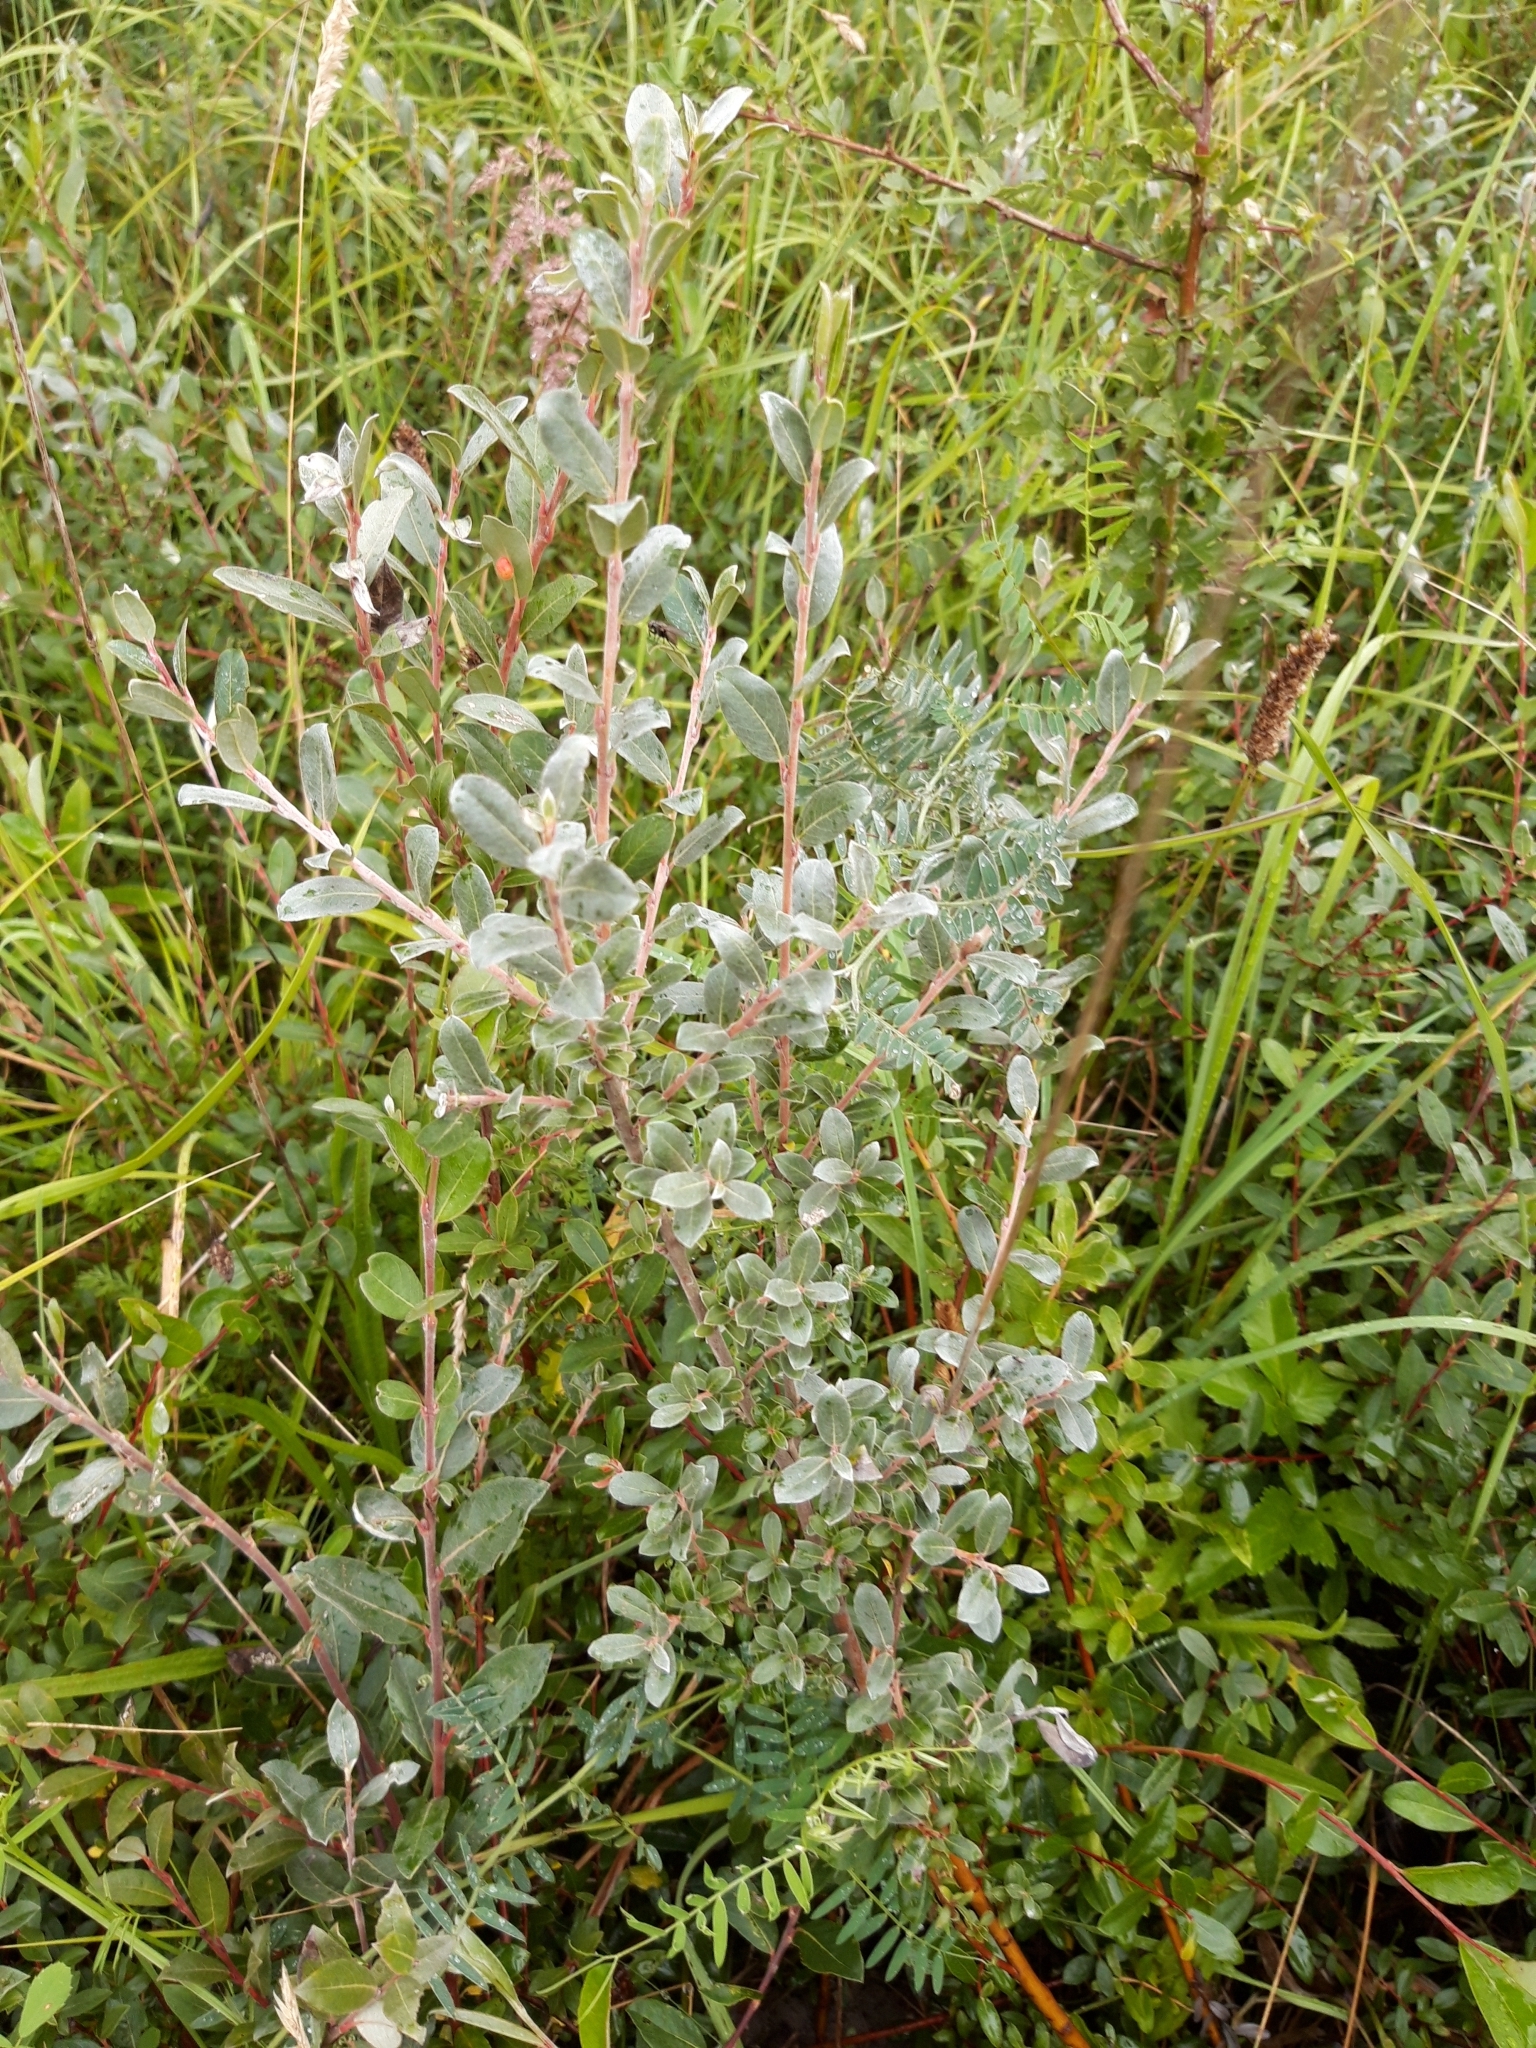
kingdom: Plantae
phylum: Tracheophyta
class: Magnoliopsida
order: Malpighiales
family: Salicaceae
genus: Salix
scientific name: Salix repens
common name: Creeping willow
